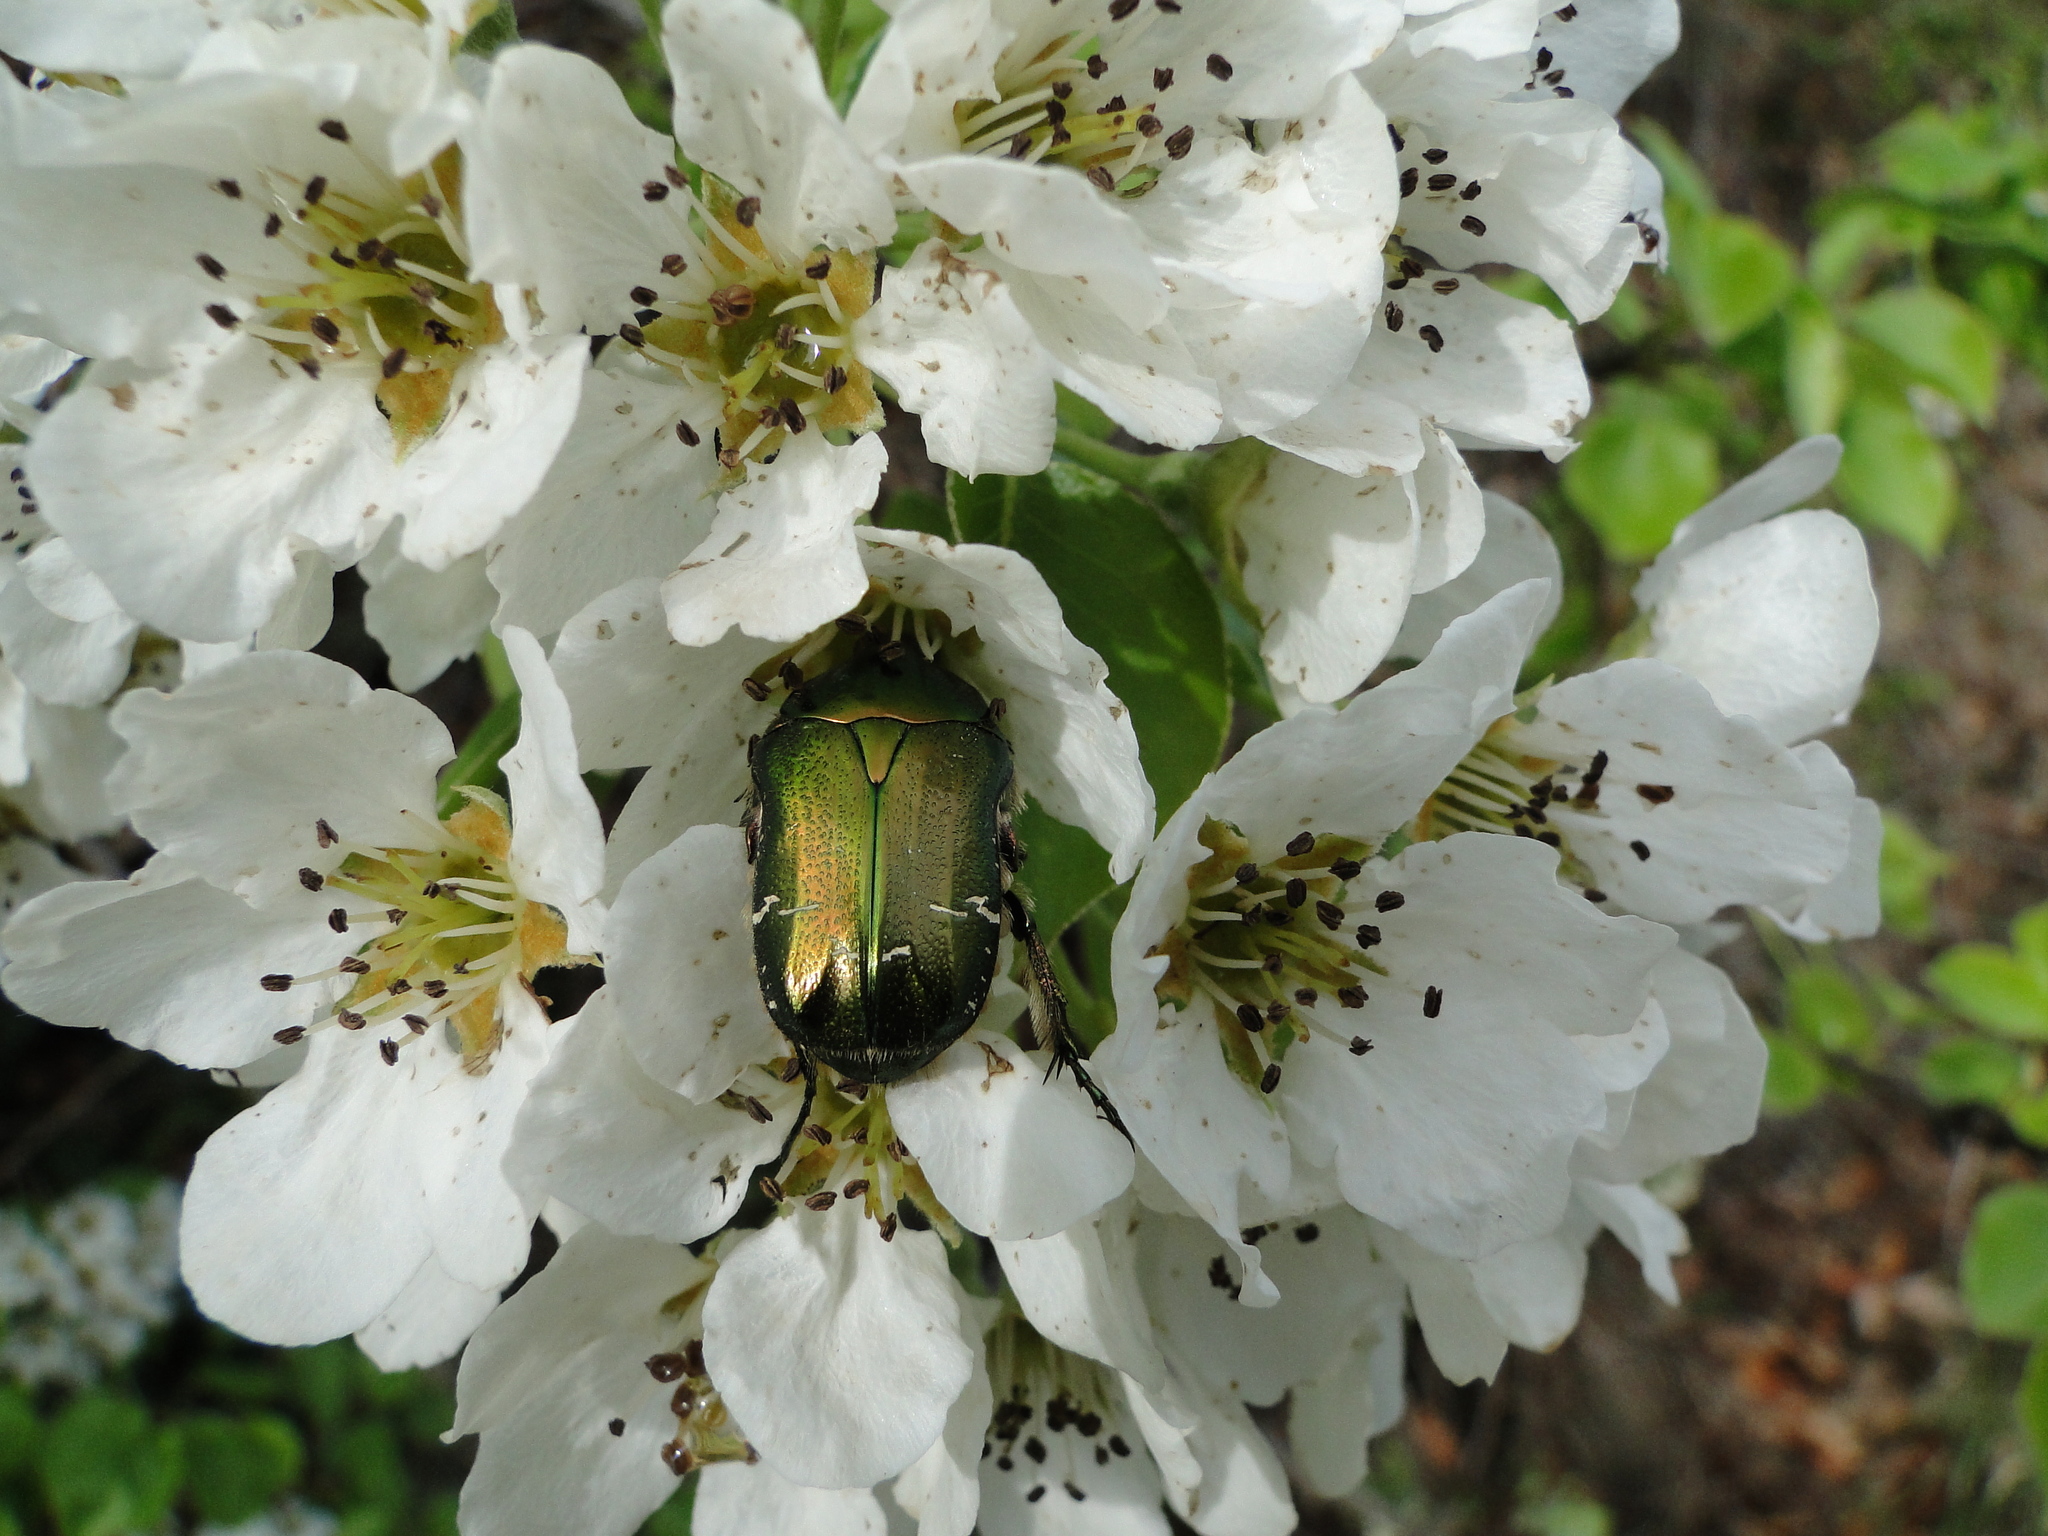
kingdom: Animalia
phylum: Arthropoda
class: Insecta
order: Coleoptera
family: Scarabaeidae
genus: Cetonia
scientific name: Cetonia aurata
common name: Rose chafer
